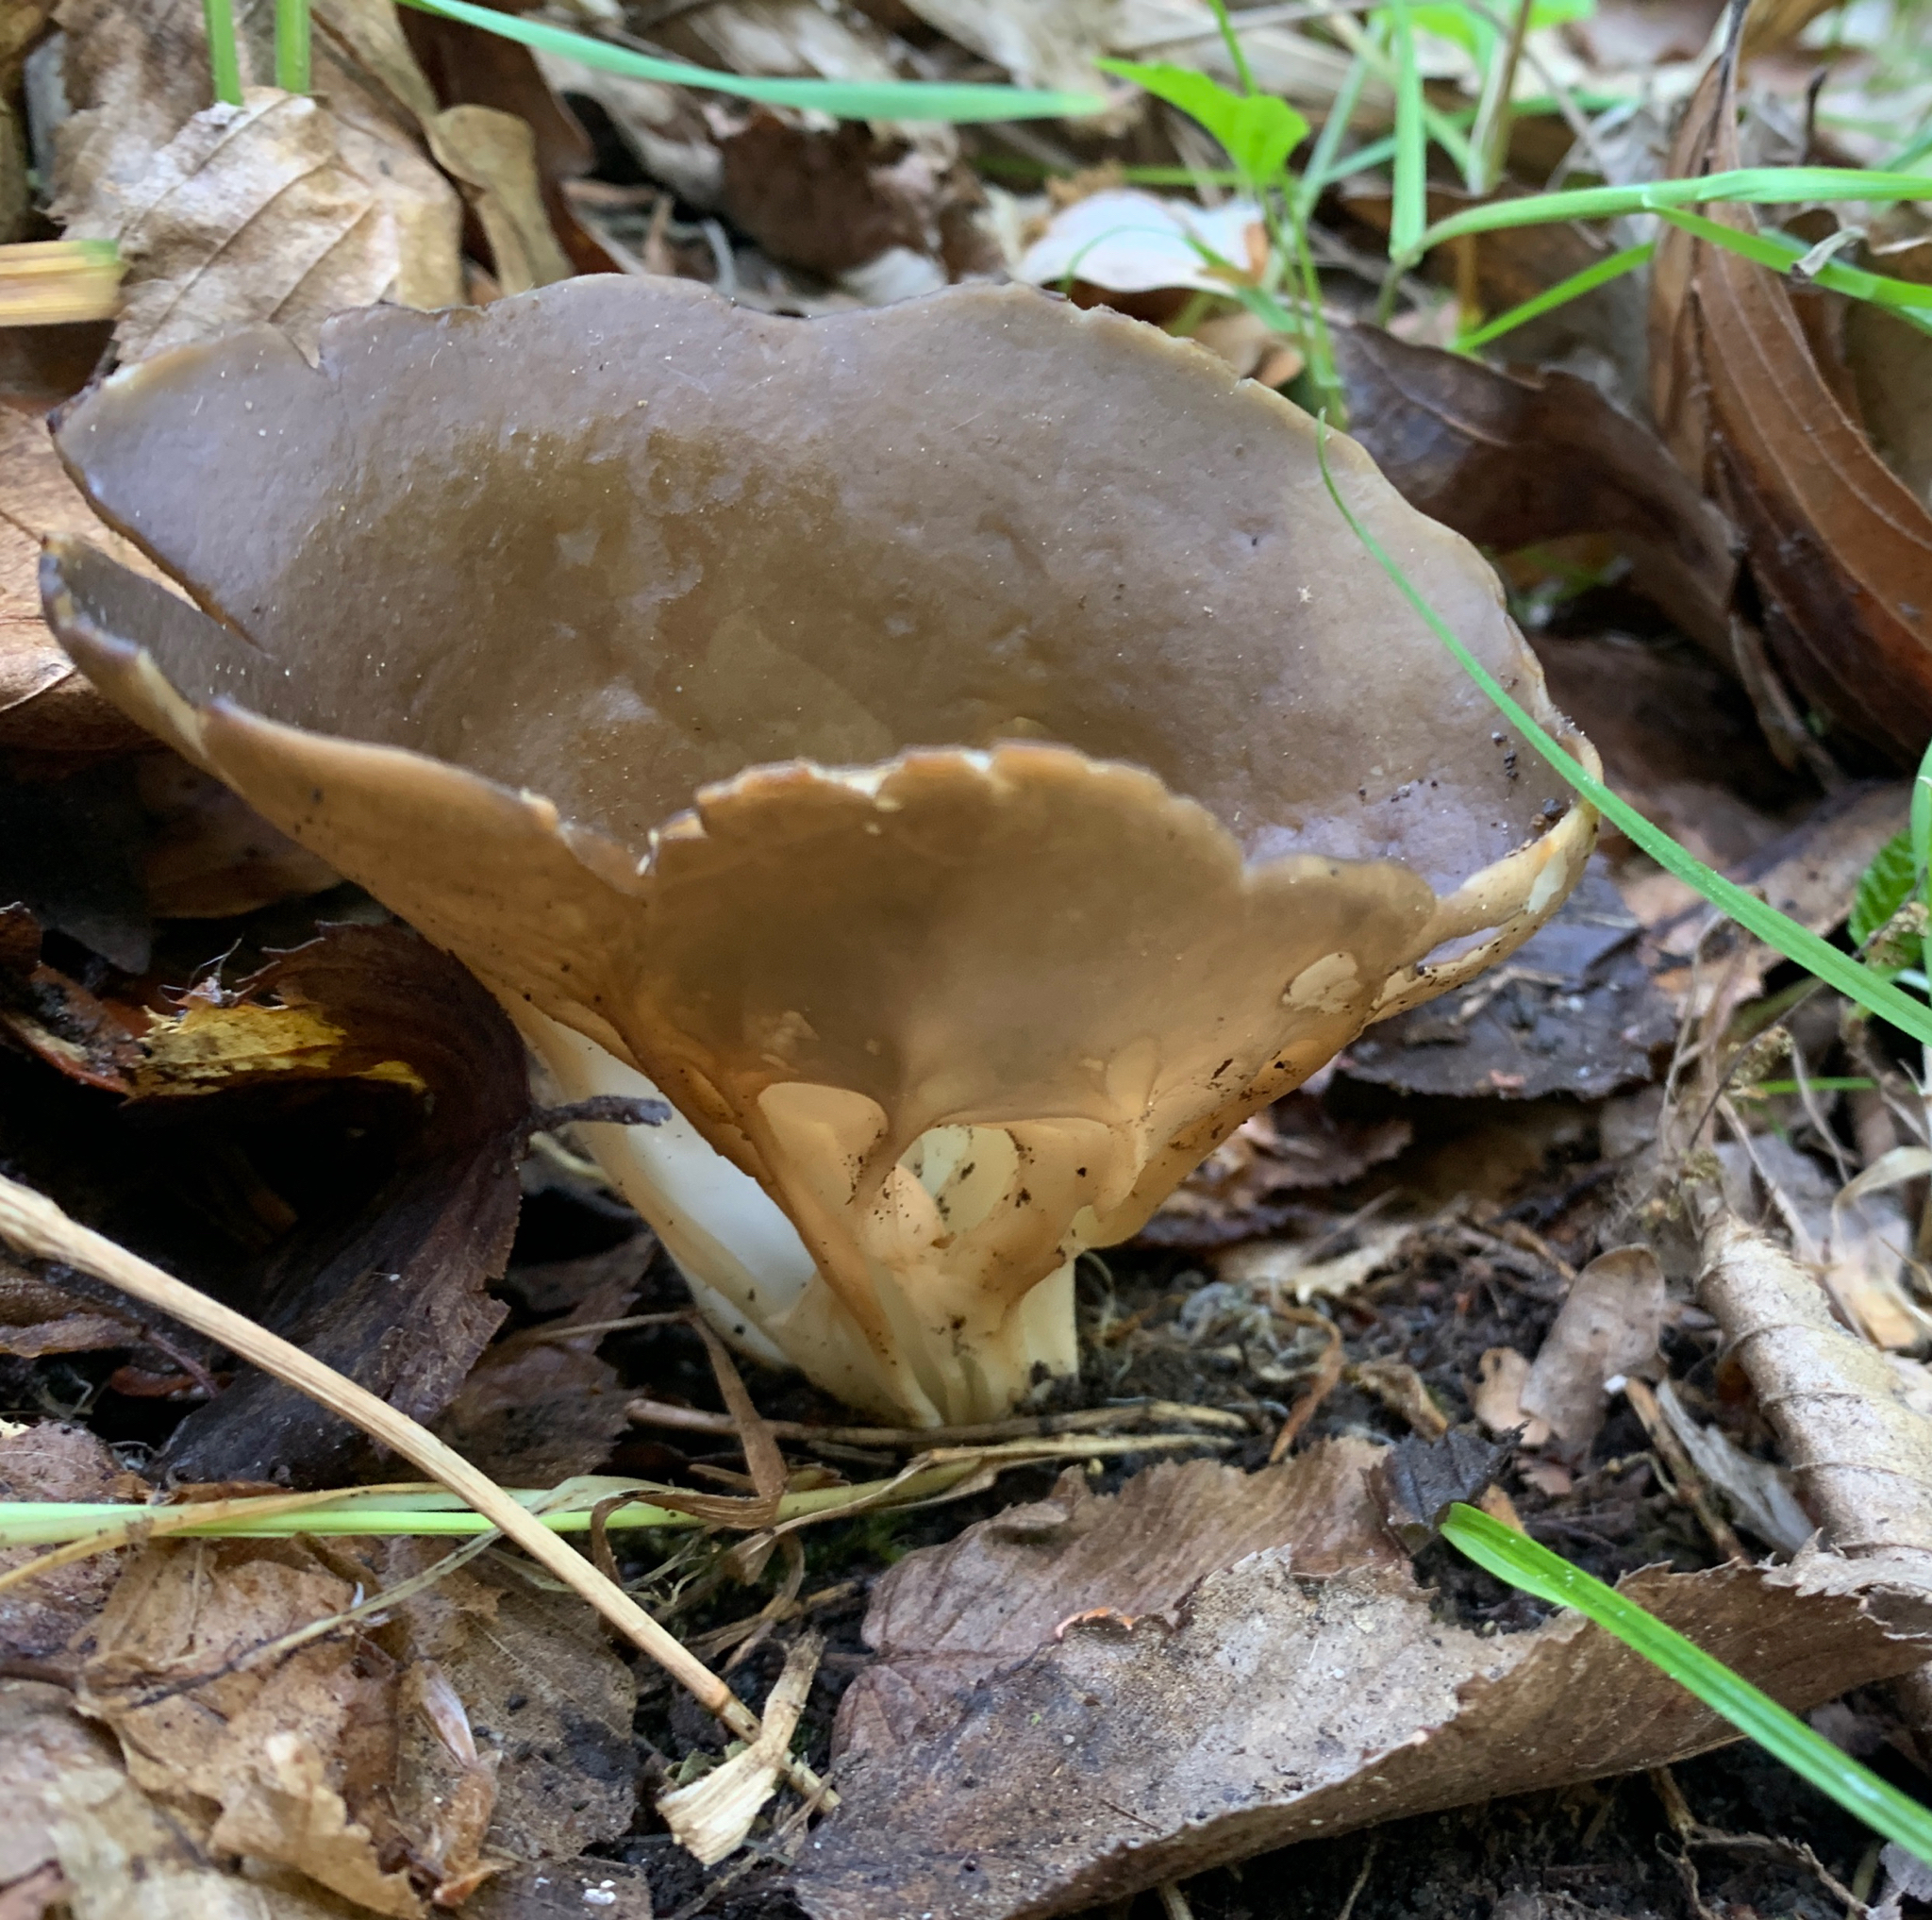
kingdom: Fungi
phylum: Ascomycota
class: Pezizomycetes
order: Pezizales
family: Helvellaceae
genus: Helvella
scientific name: Helvella acetabulum
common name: Vinegar cup
